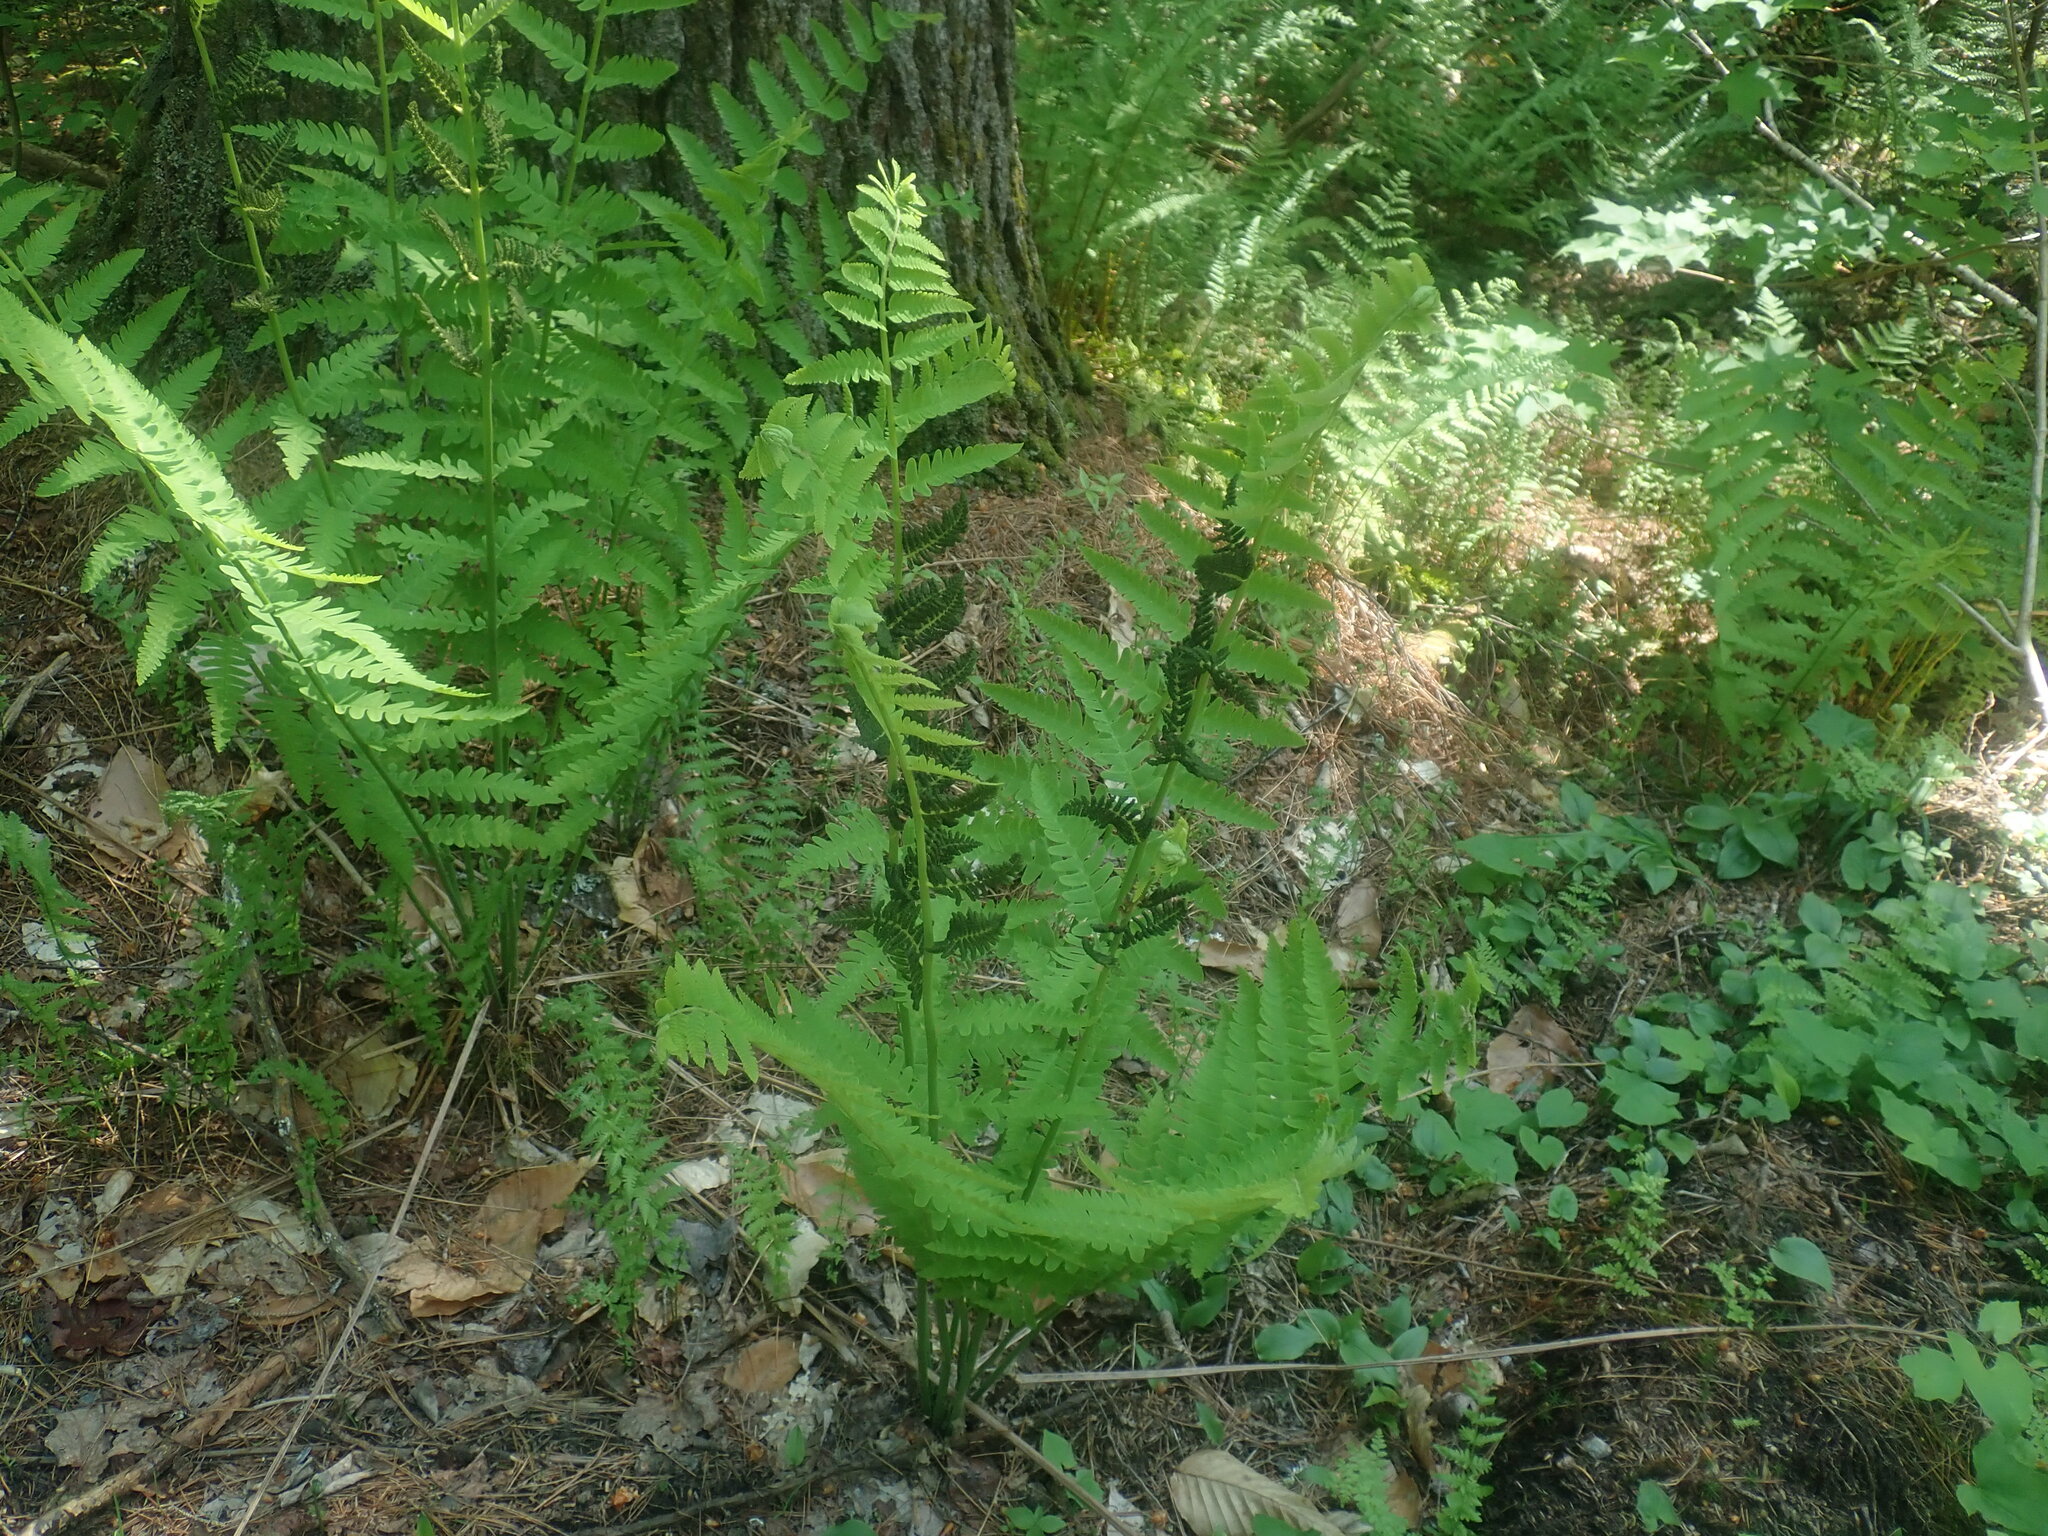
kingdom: Plantae
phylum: Tracheophyta
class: Polypodiopsida
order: Osmundales
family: Osmundaceae
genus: Claytosmunda
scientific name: Claytosmunda claytoniana
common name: Clayton's fern
